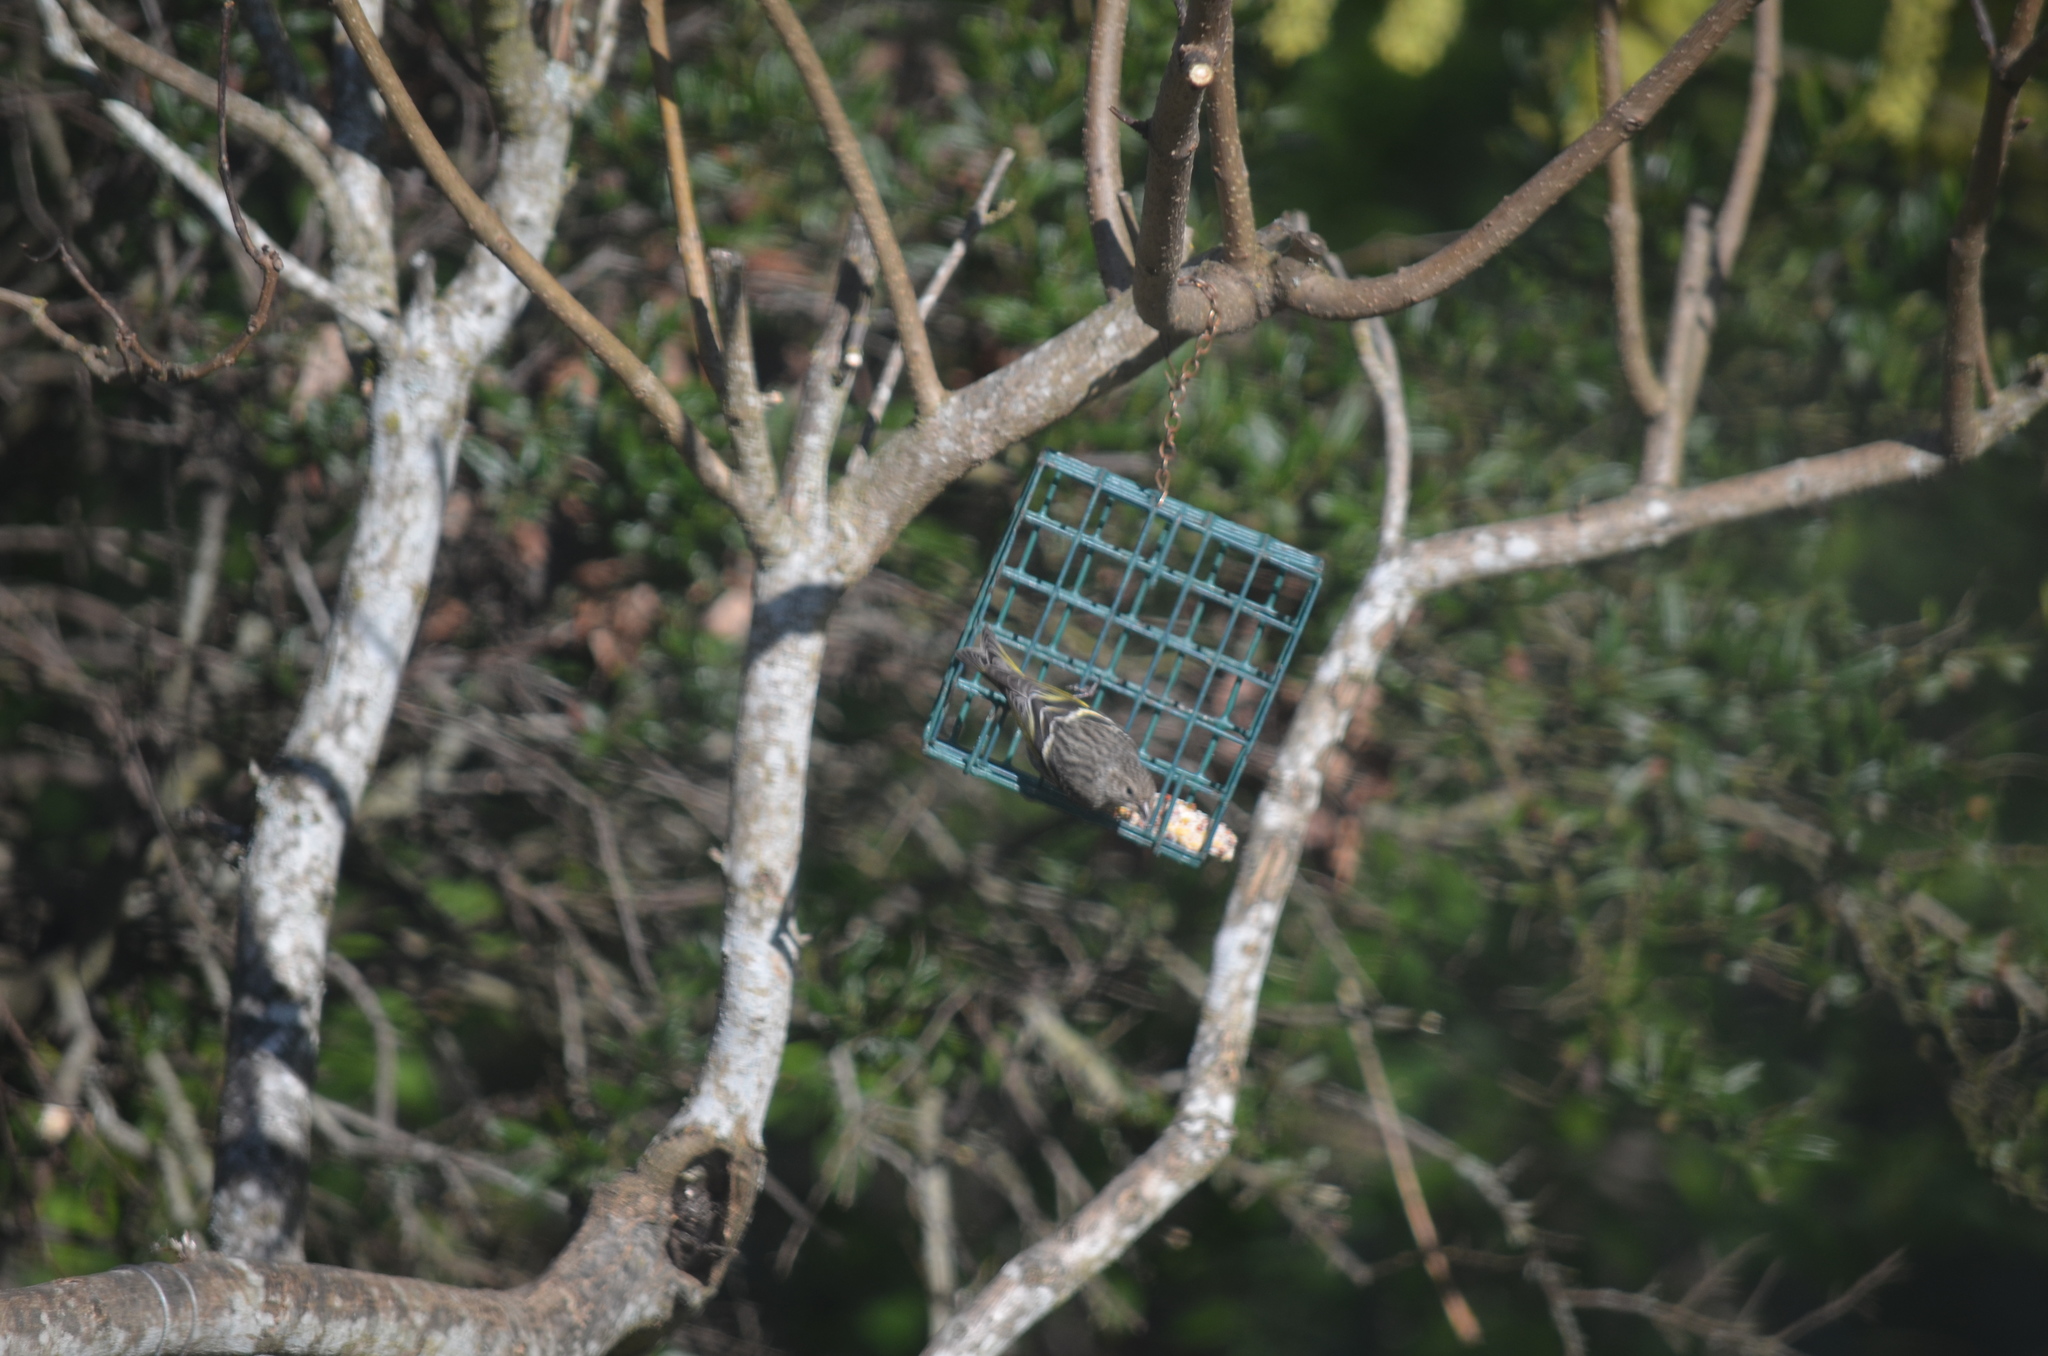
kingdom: Animalia
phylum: Chordata
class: Aves
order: Passeriformes
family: Fringillidae
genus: Spinus
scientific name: Spinus pinus
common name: Pine siskin
